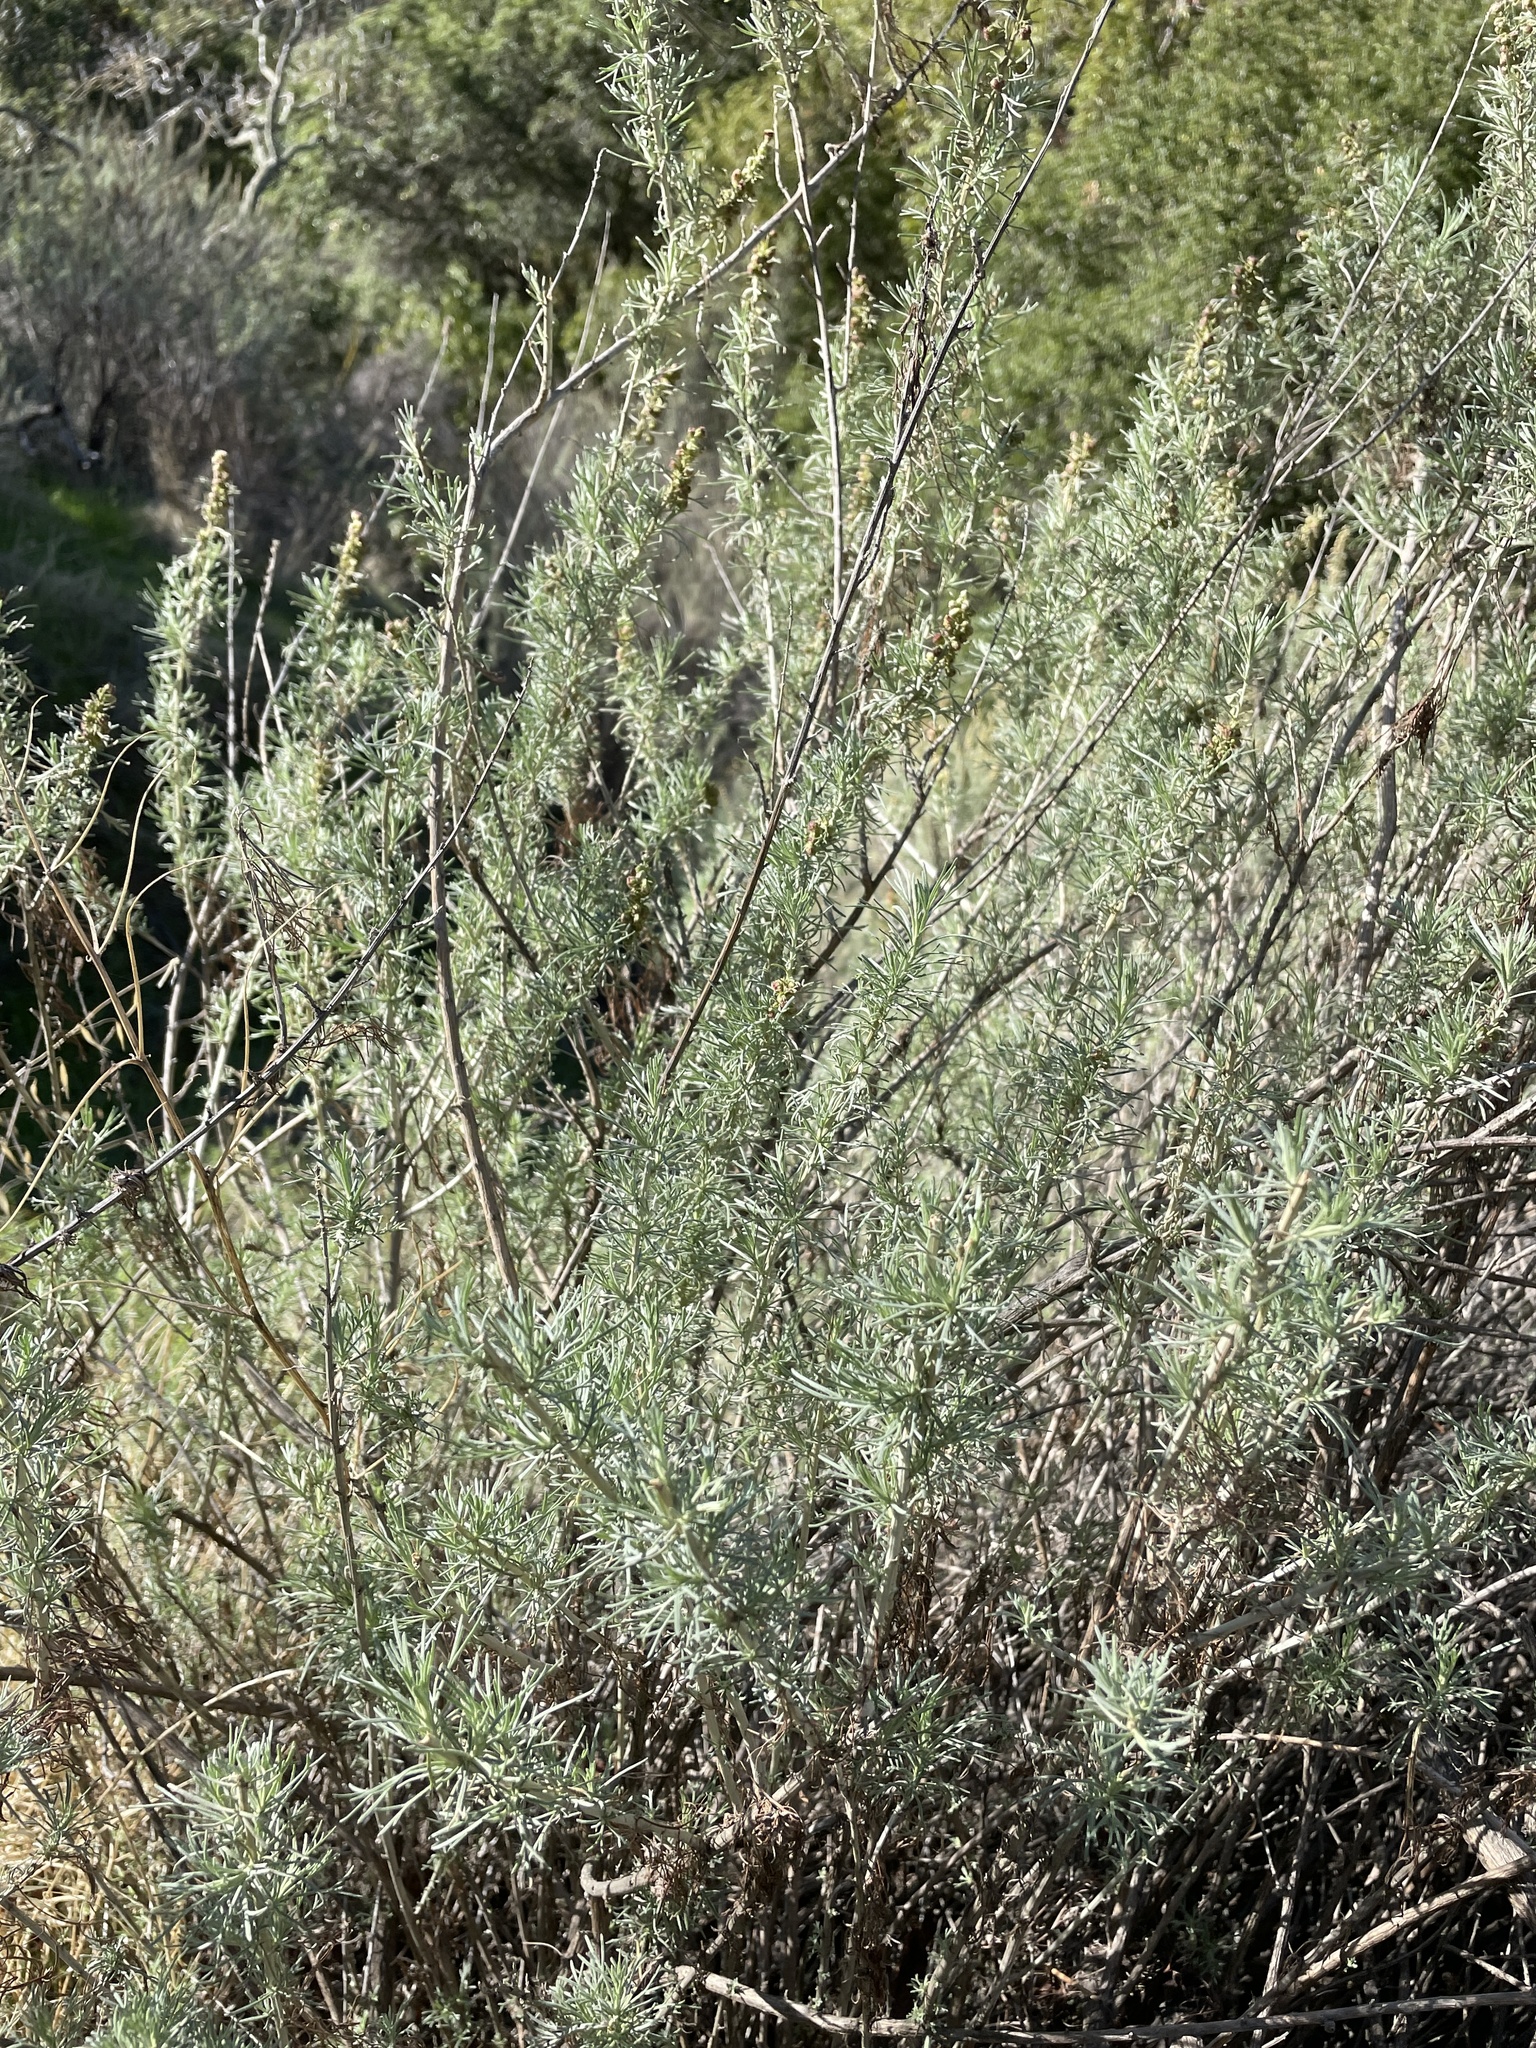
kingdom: Plantae
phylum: Tracheophyta
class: Magnoliopsida
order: Asterales
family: Asteraceae
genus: Artemisia
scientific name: Artemisia californica
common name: California sagebrush
